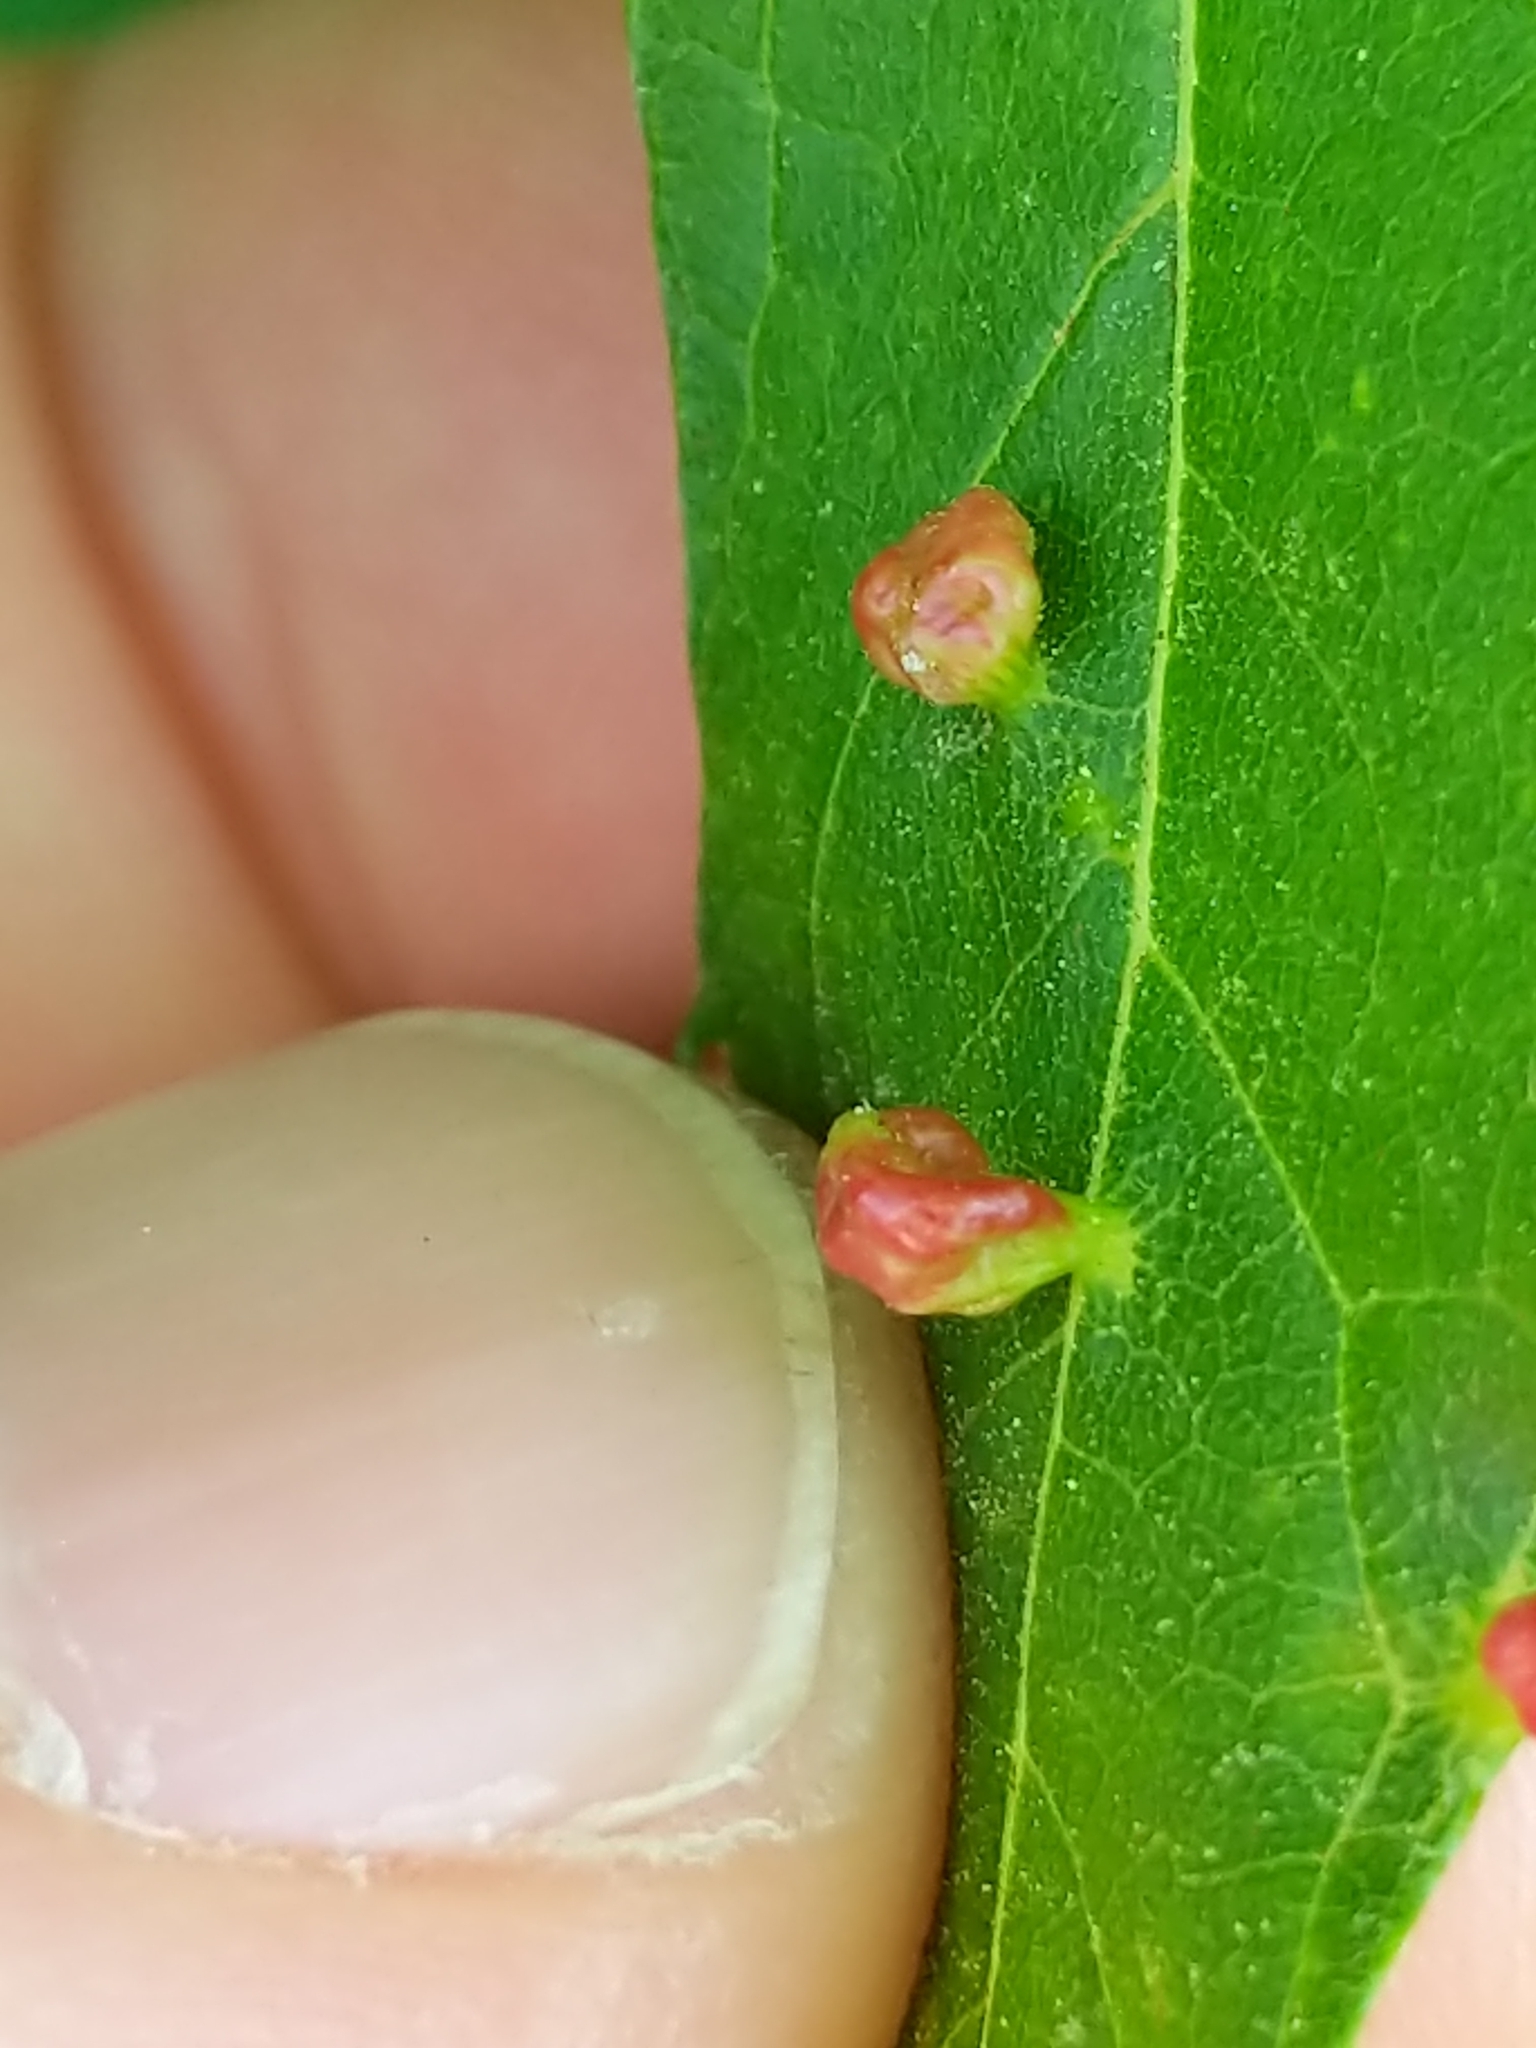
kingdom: Animalia
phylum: Arthropoda
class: Arachnida
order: Trombidiformes
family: Eriophyidae
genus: Vasates
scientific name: Vasates quadripedes
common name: Maple bladder gall mite
